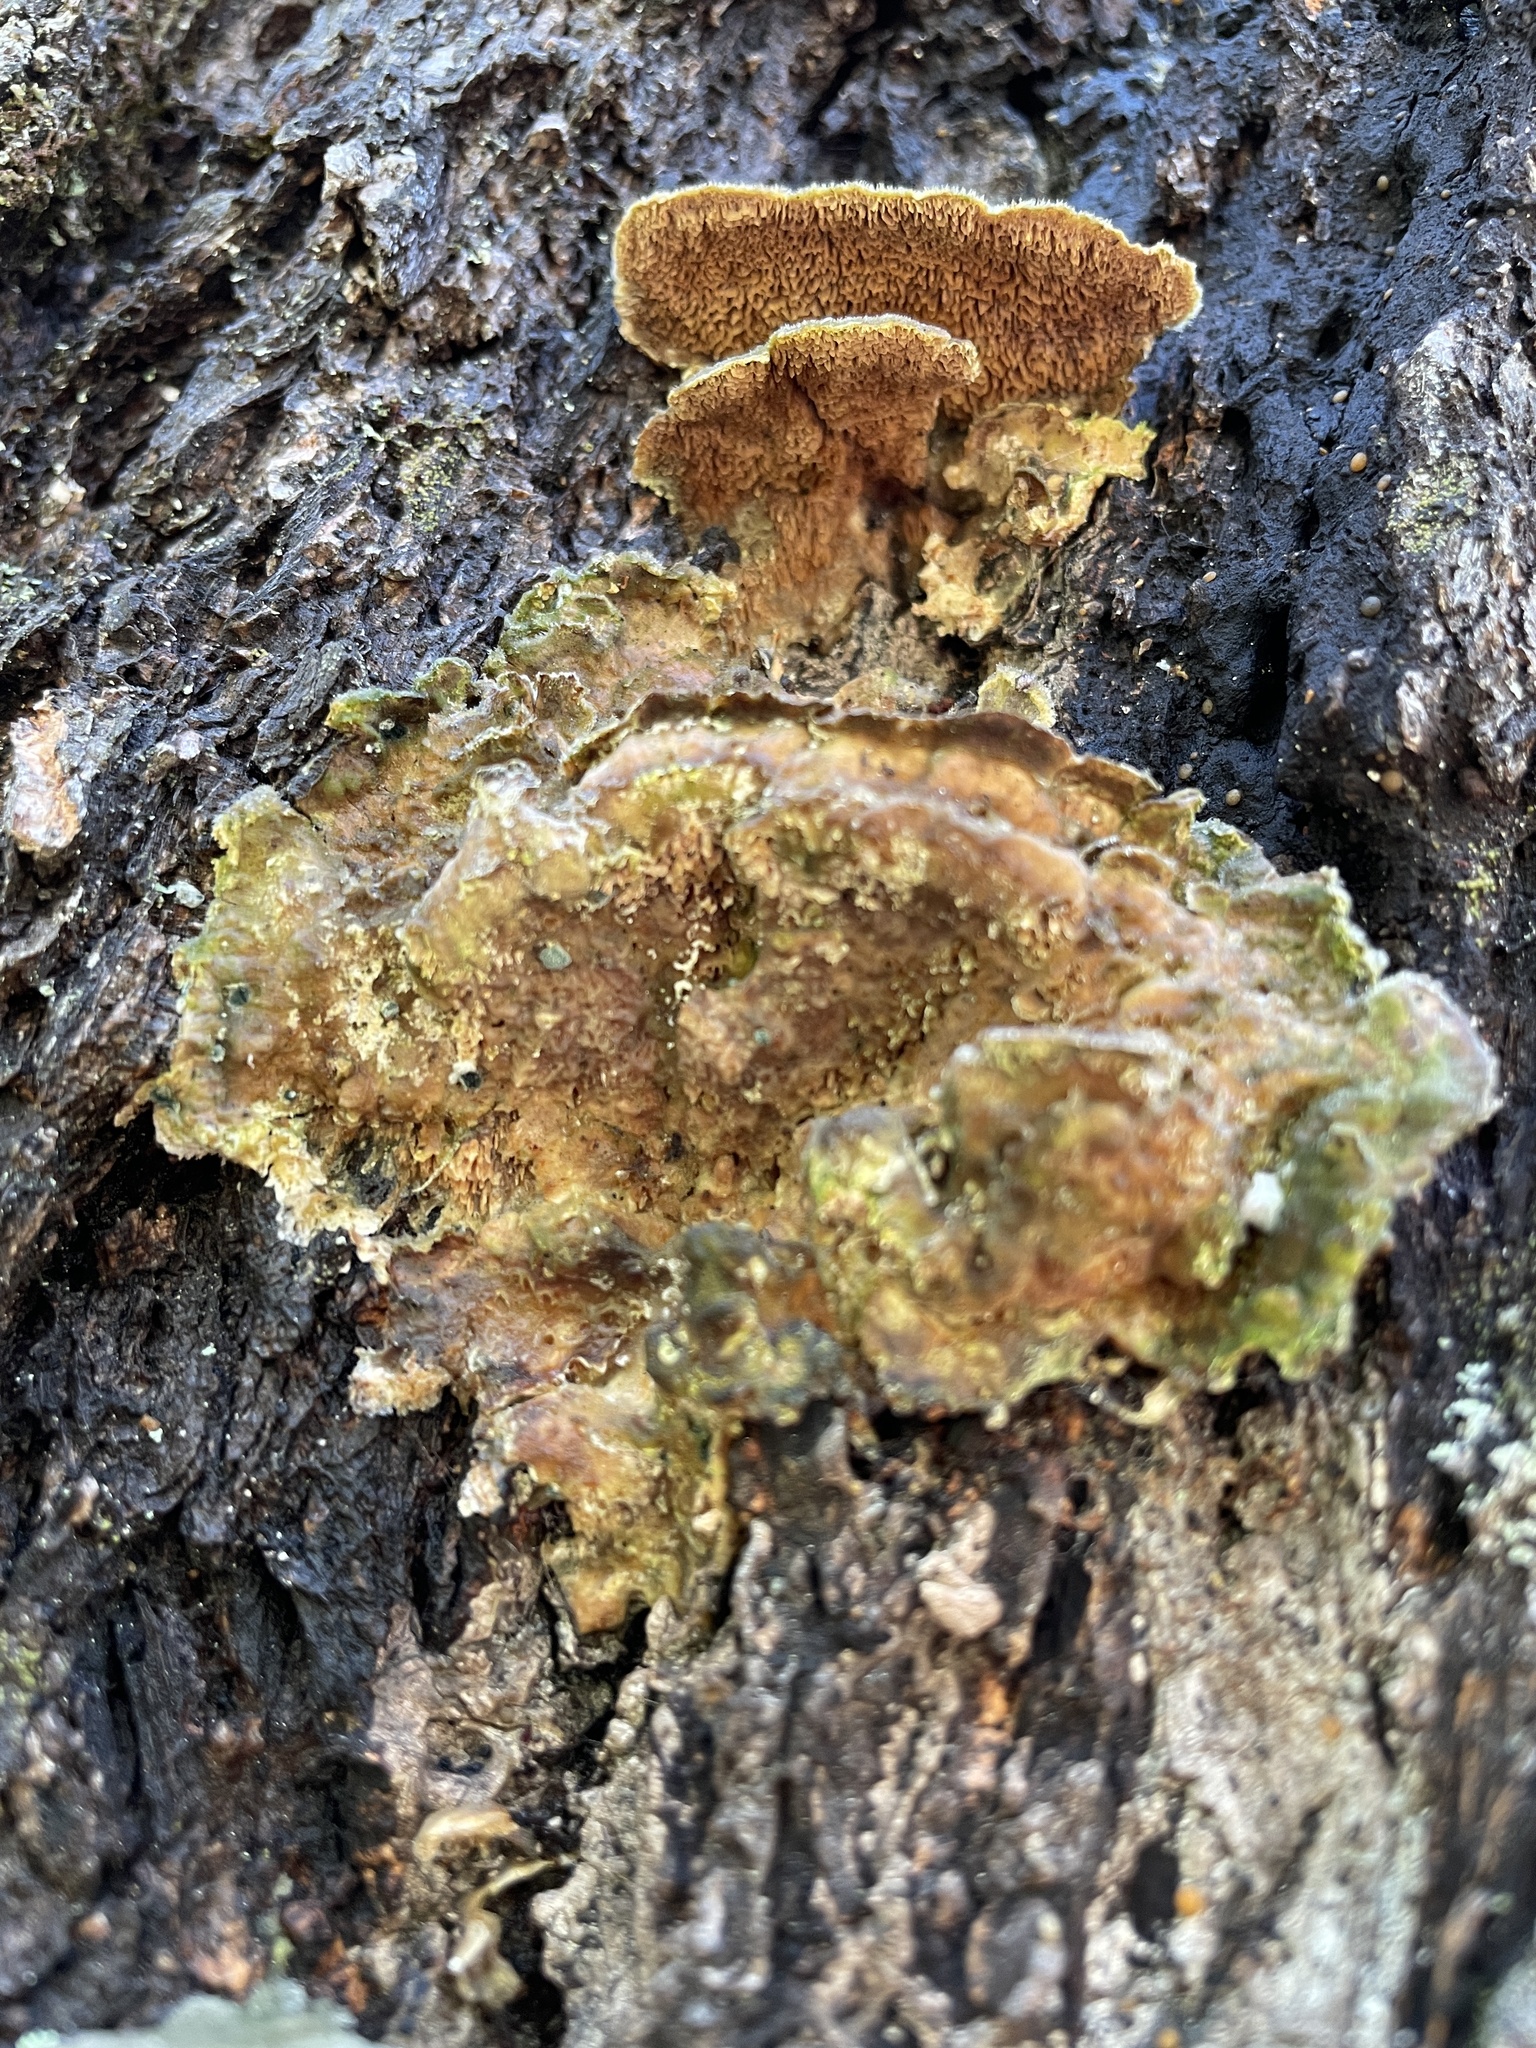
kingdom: Fungi
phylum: Basidiomycota
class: Agaricomycetes
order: Hymenochaetales
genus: Trichaptum
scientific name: Trichaptum abietinum
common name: Purplepore bracket
